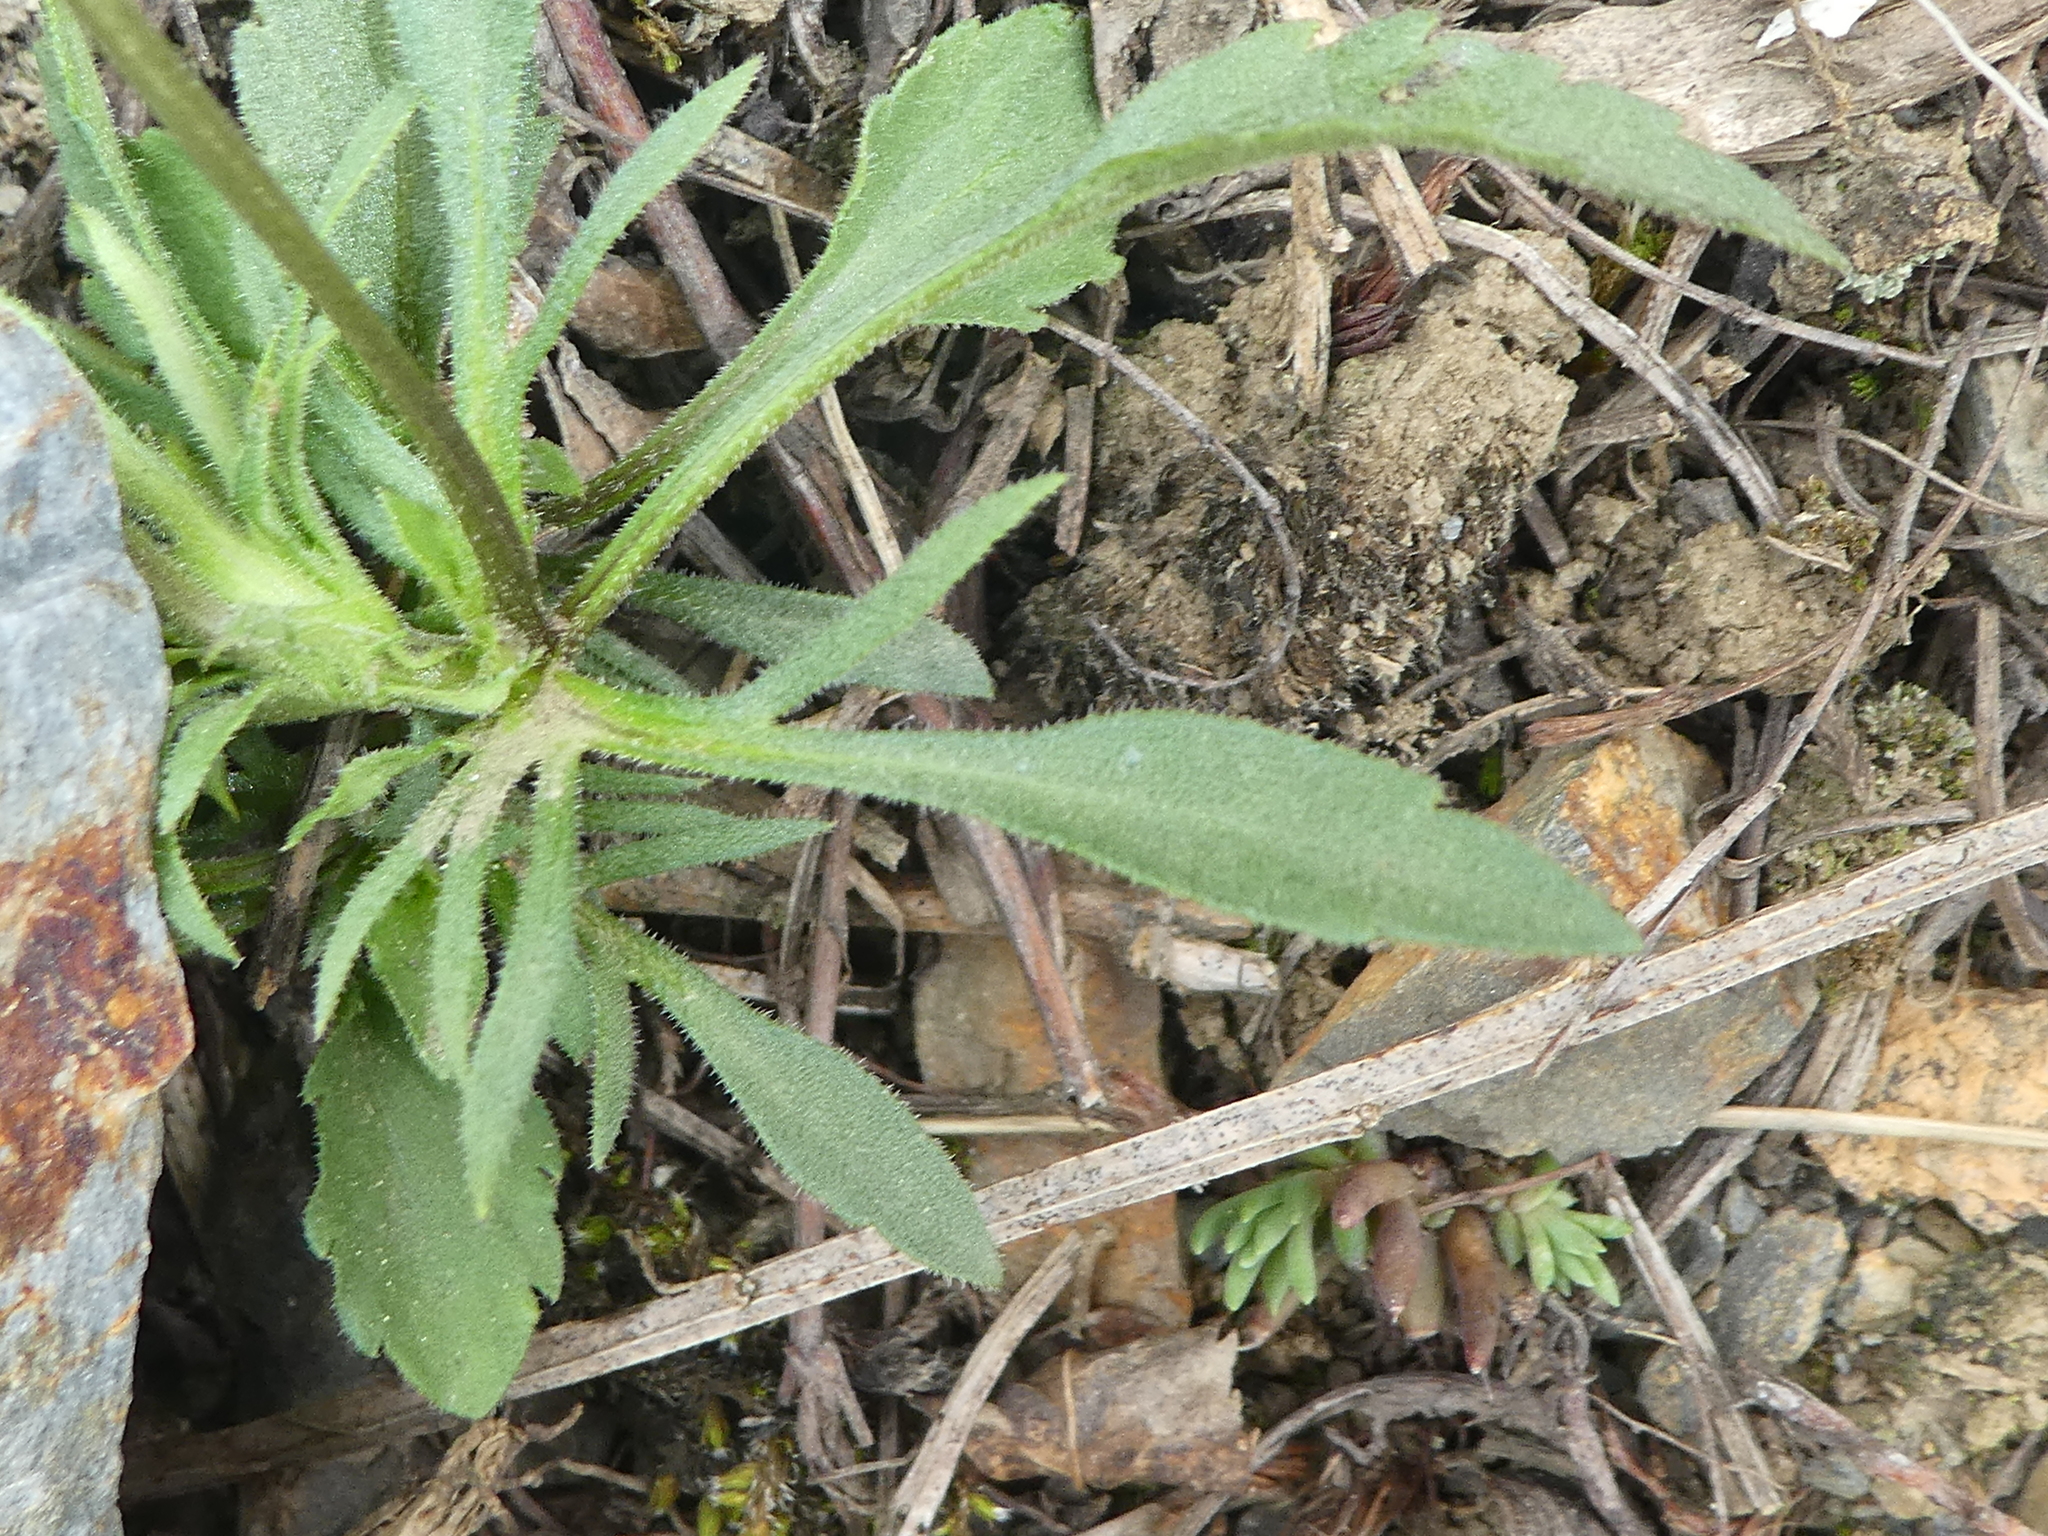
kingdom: Plantae
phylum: Tracheophyta
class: Magnoliopsida
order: Malpighiales
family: Violaceae
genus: Viola
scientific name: Viola arvensis
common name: Field pansy
